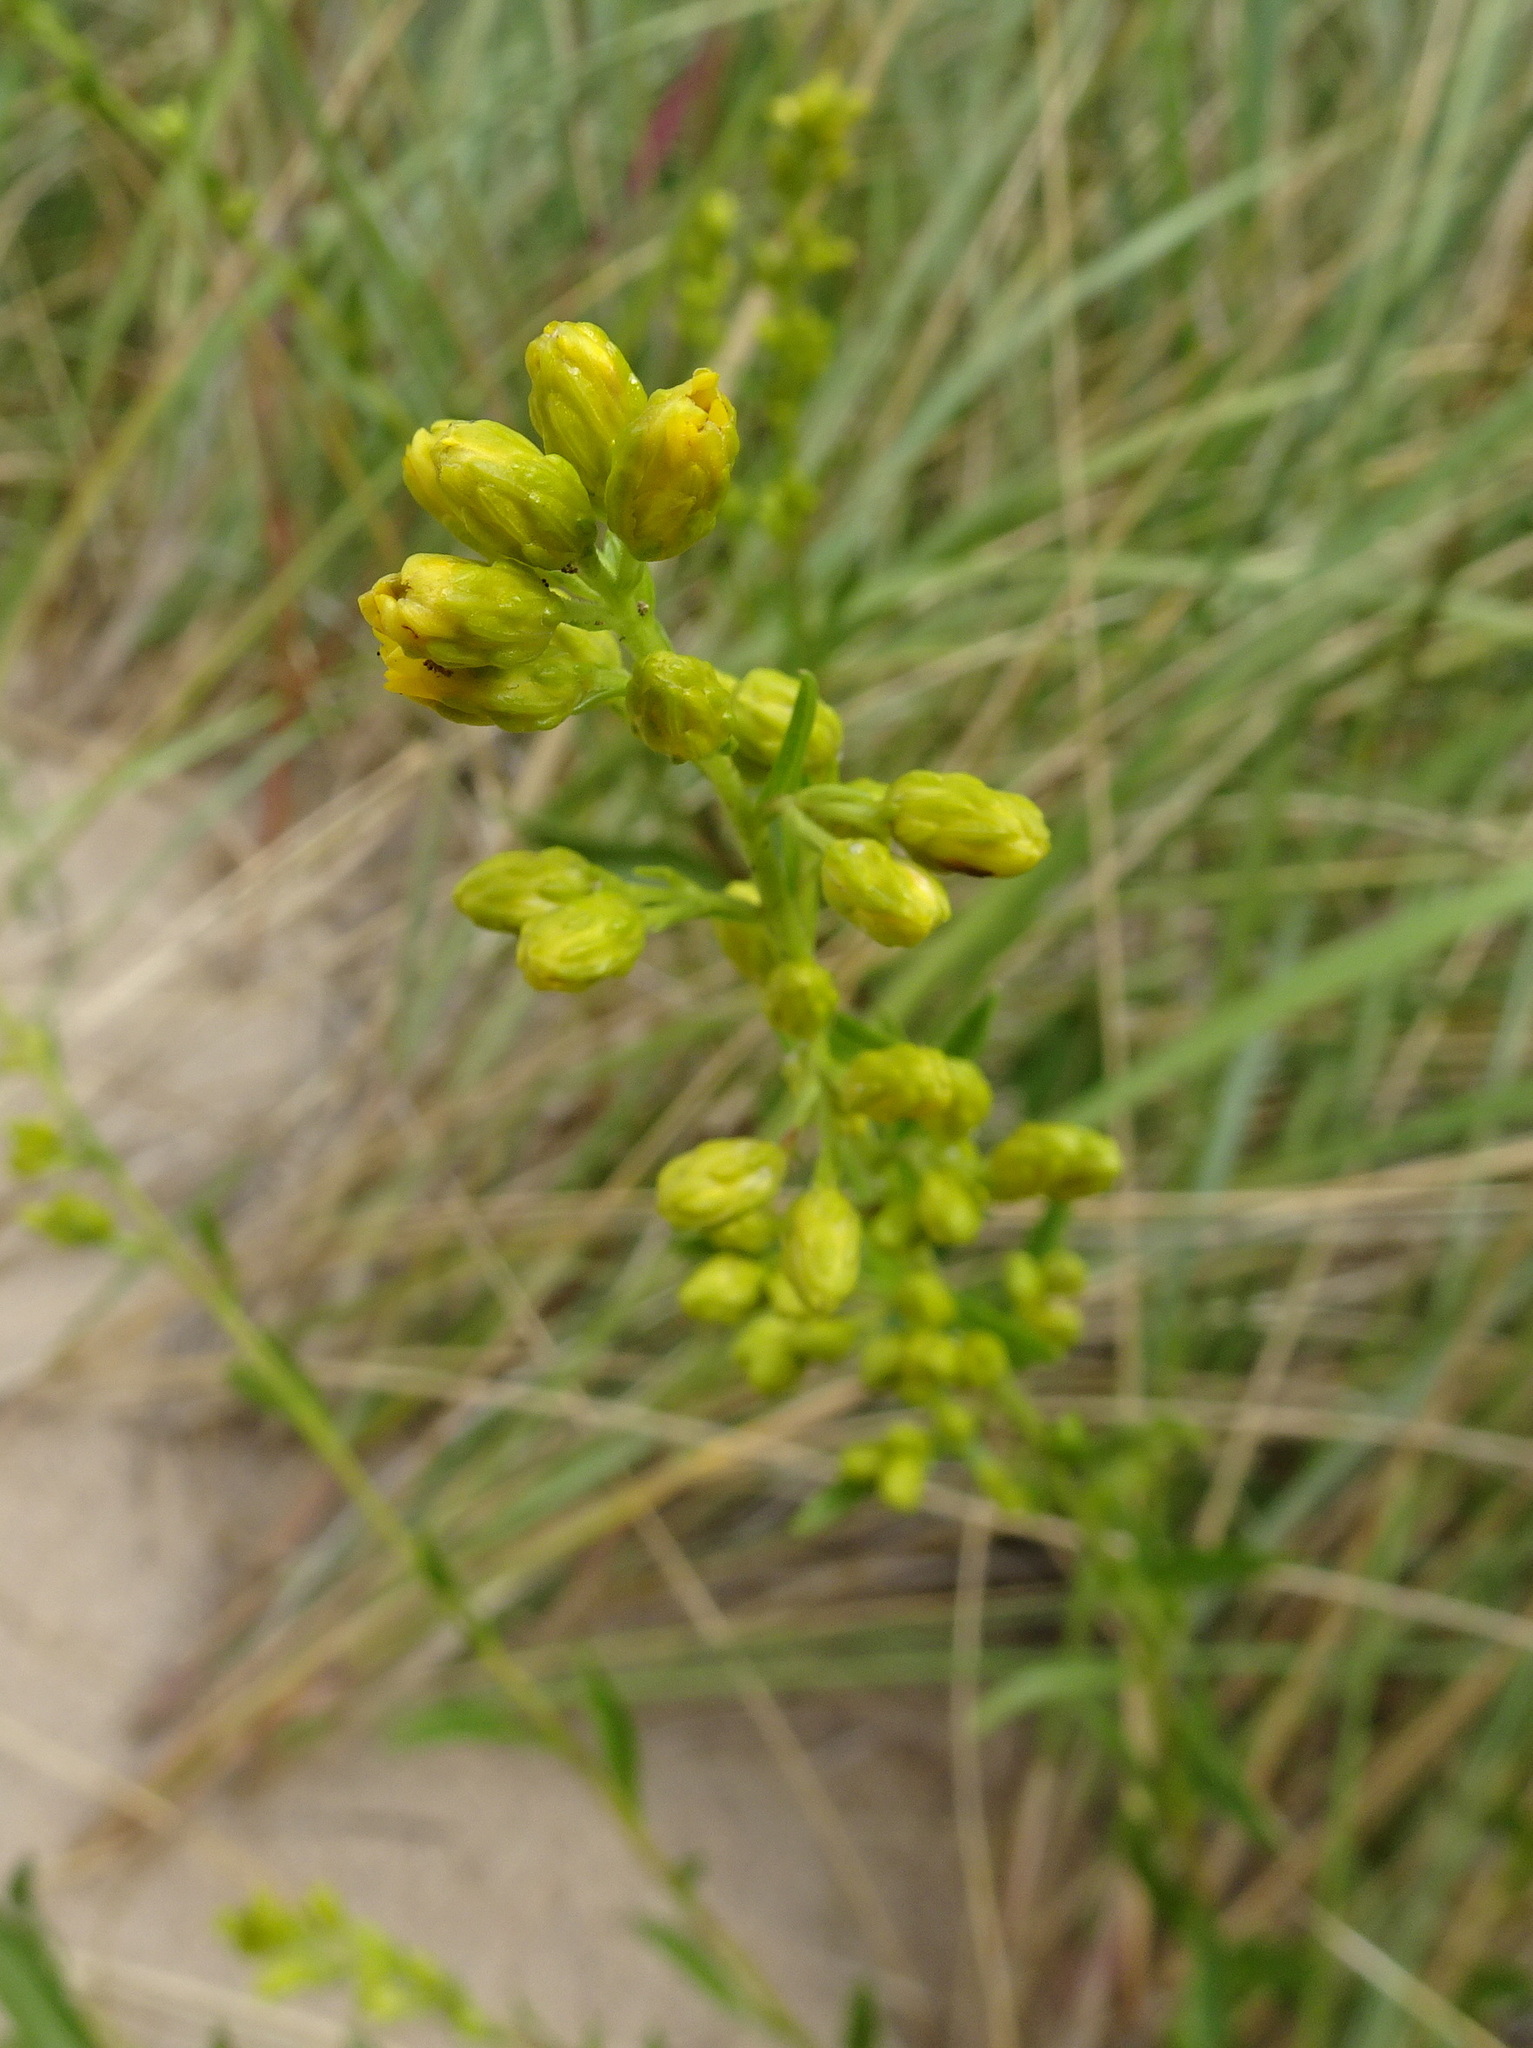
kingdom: Plantae
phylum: Tracheophyta
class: Magnoliopsida
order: Asterales
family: Asteraceae
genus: Solidago
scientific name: Solidago gillmanii
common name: Gillman's goldenrod
